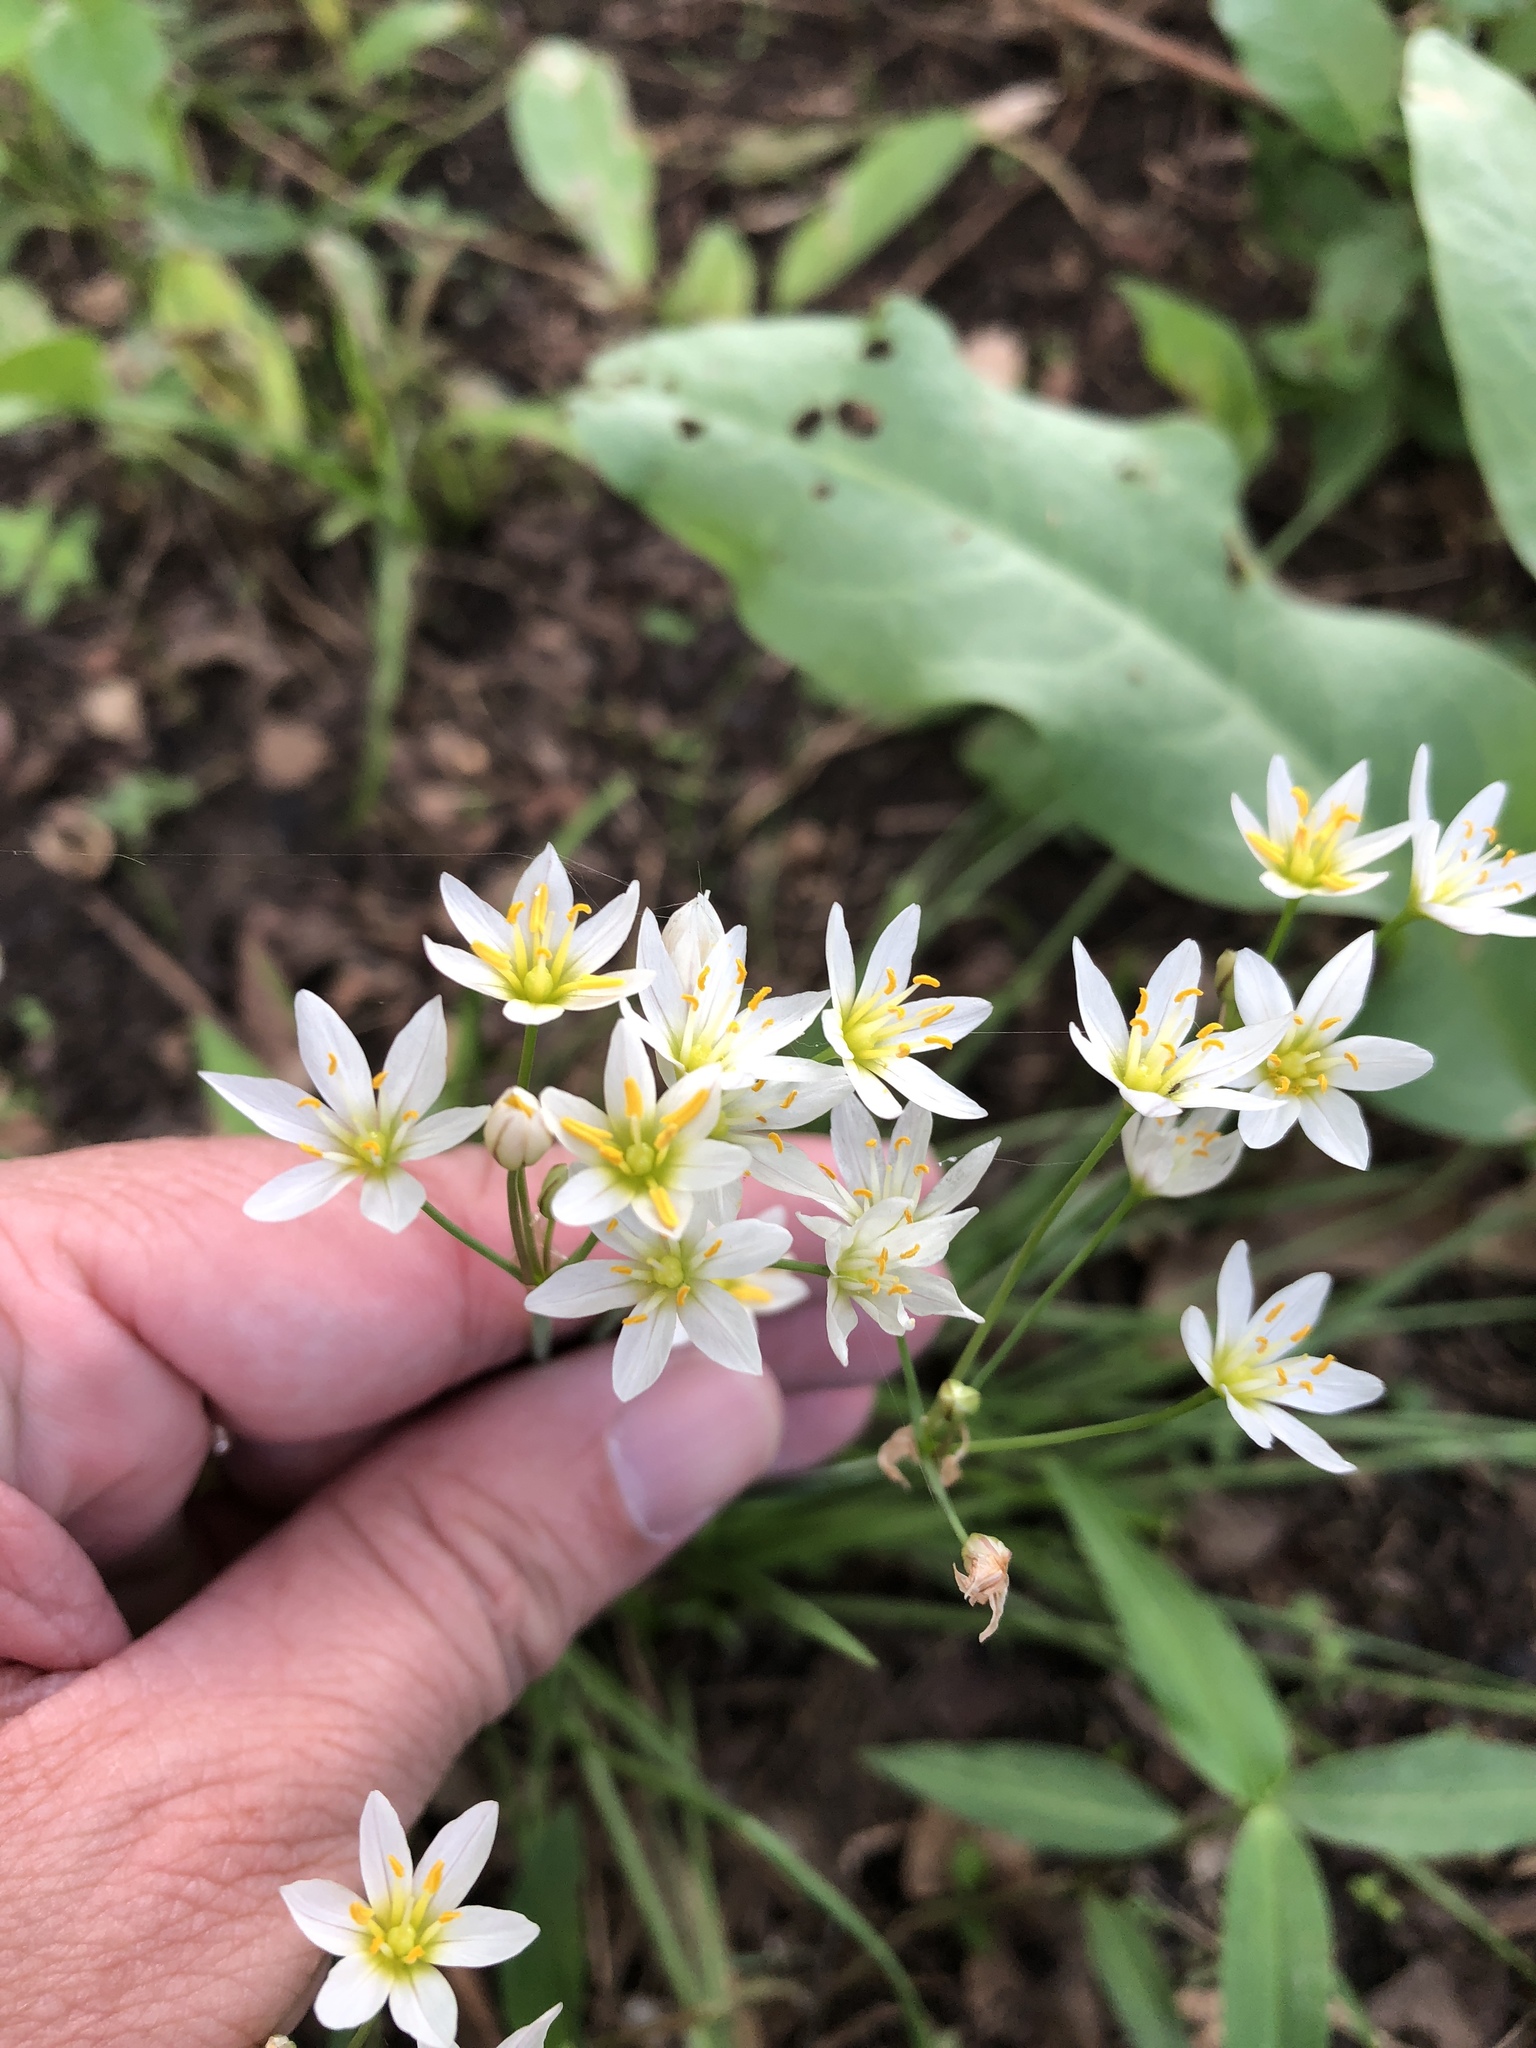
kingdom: Plantae
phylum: Tracheophyta
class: Liliopsida
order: Asparagales
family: Amaryllidaceae
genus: Nothoscordum
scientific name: Nothoscordum bivalve
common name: Crow-poison
